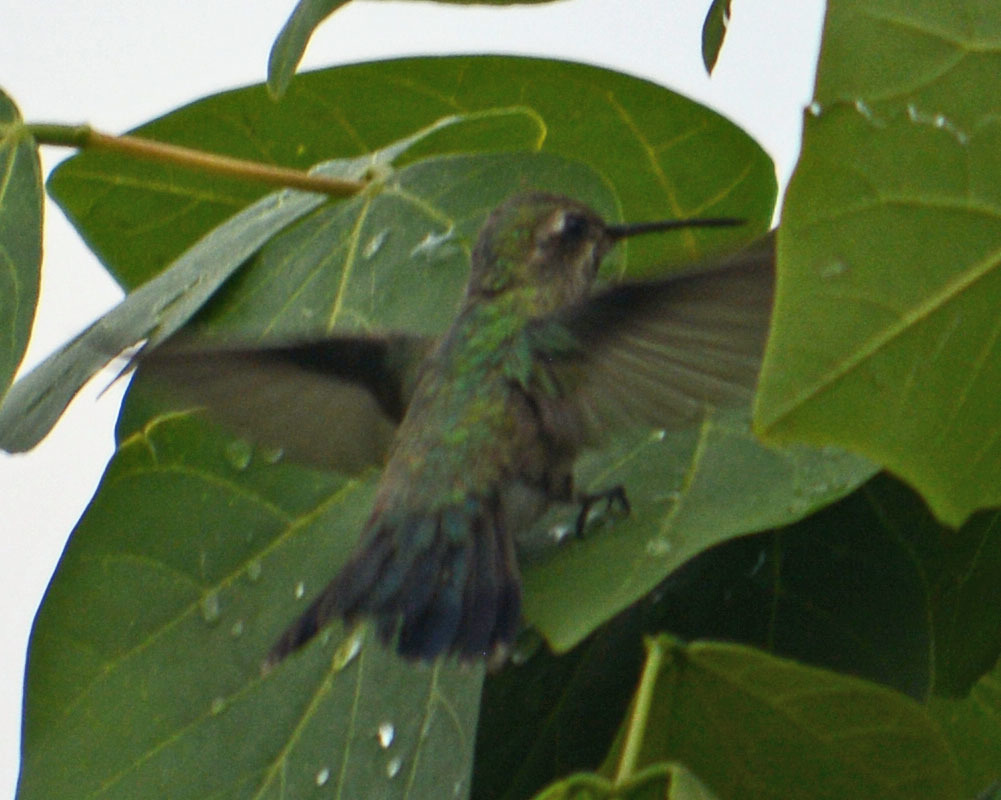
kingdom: Animalia
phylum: Chordata
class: Aves
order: Apodiformes
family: Trochilidae
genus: Cynanthus
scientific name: Cynanthus latirostris
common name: Broad-billed hummingbird
